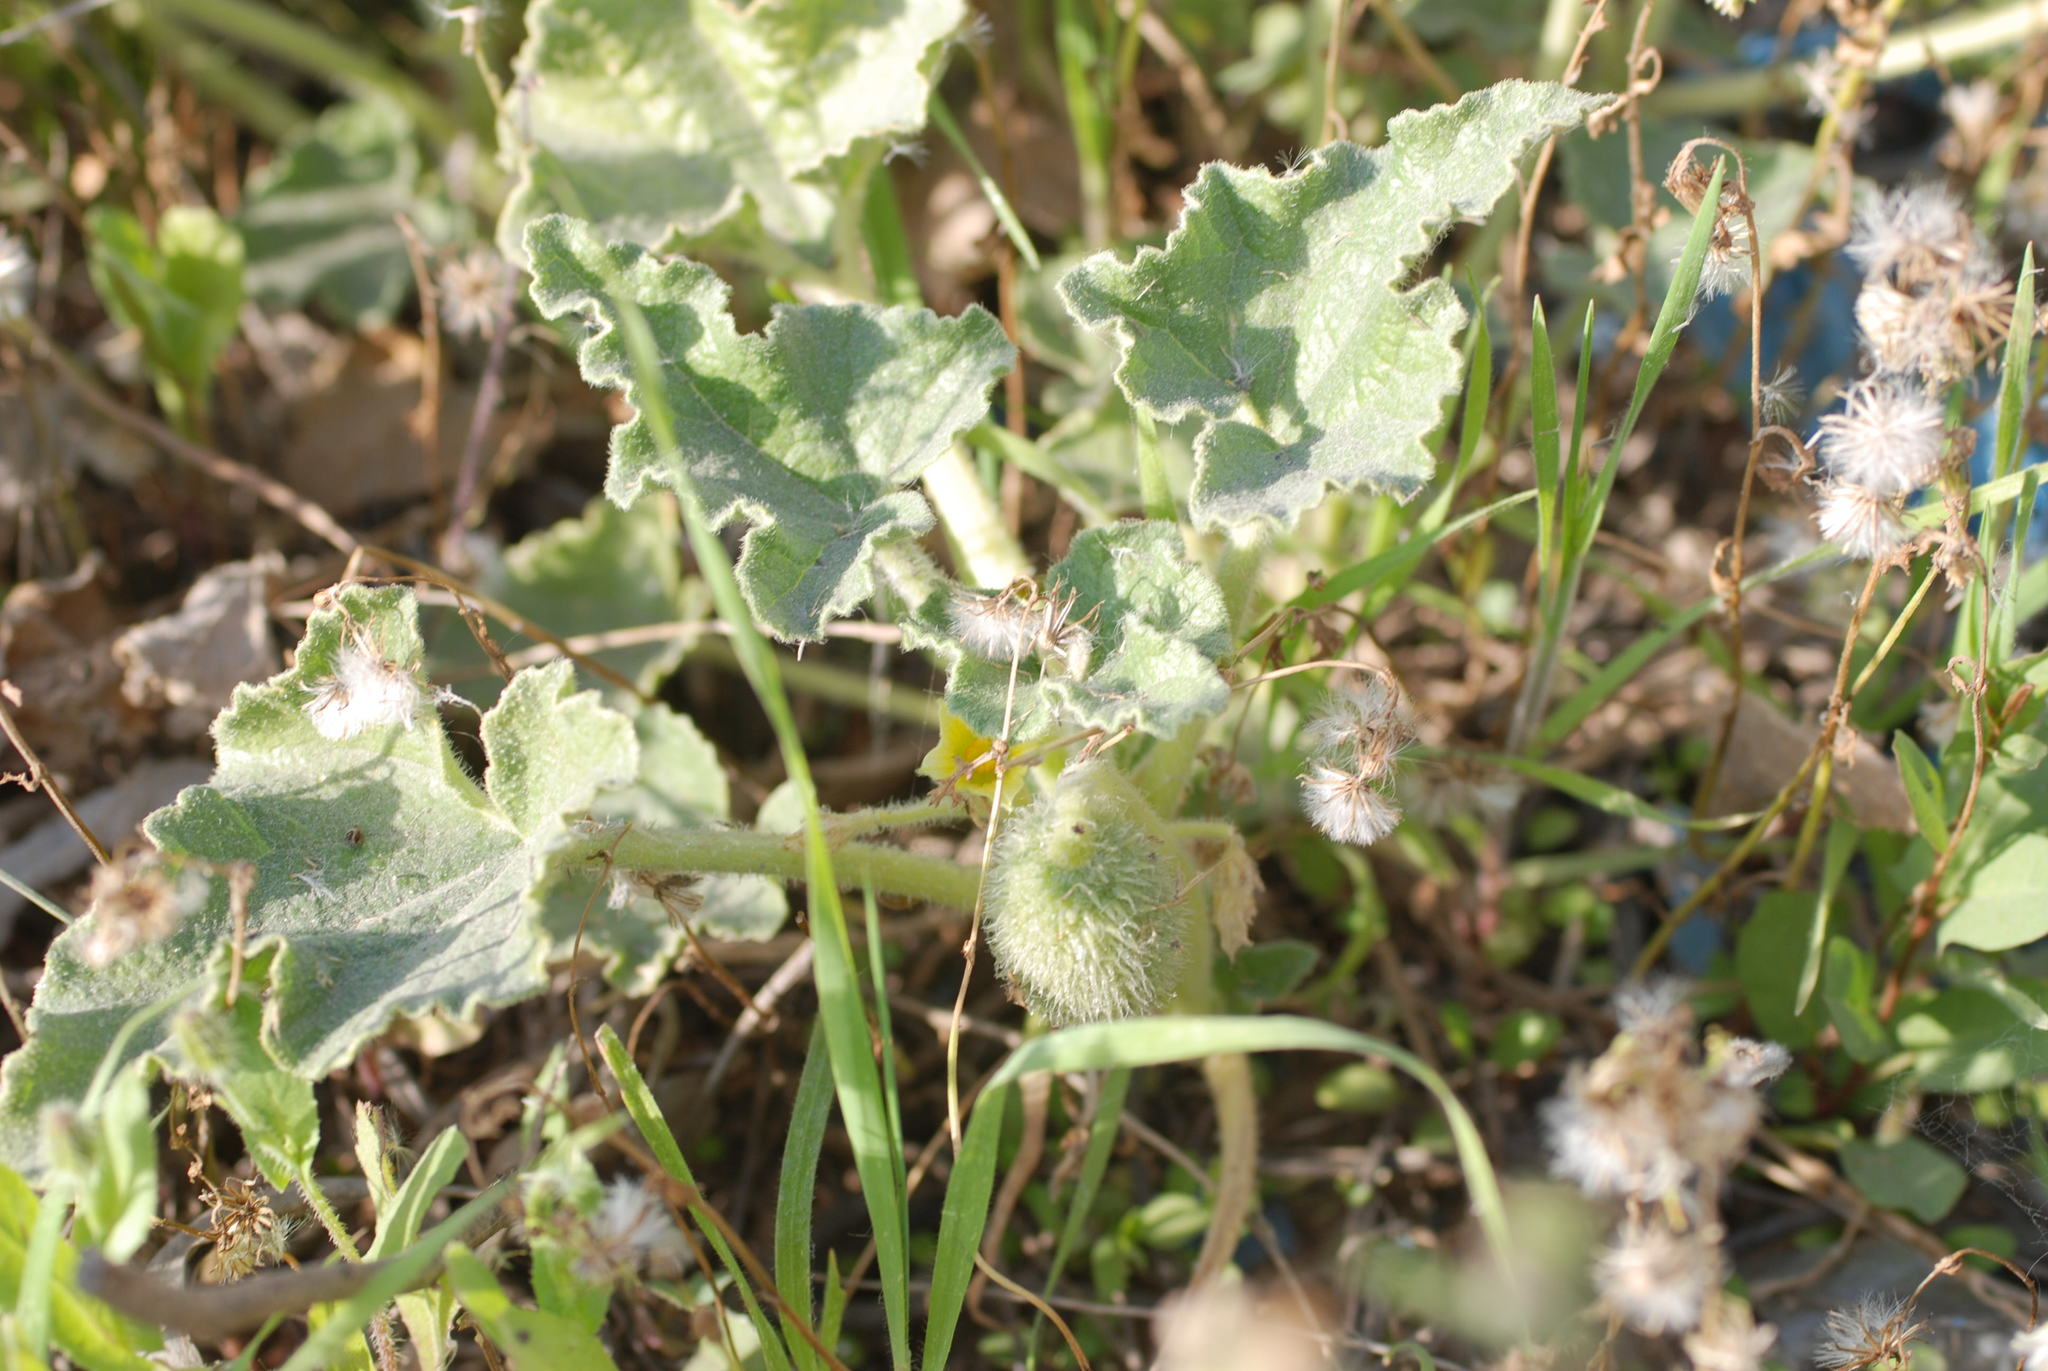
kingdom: Plantae
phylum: Tracheophyta
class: Magnoliopsida
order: Cucurbitales
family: Cucurbitaceae
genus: Ecballium
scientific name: Ecballium elaterium
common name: Squirting cucumber
